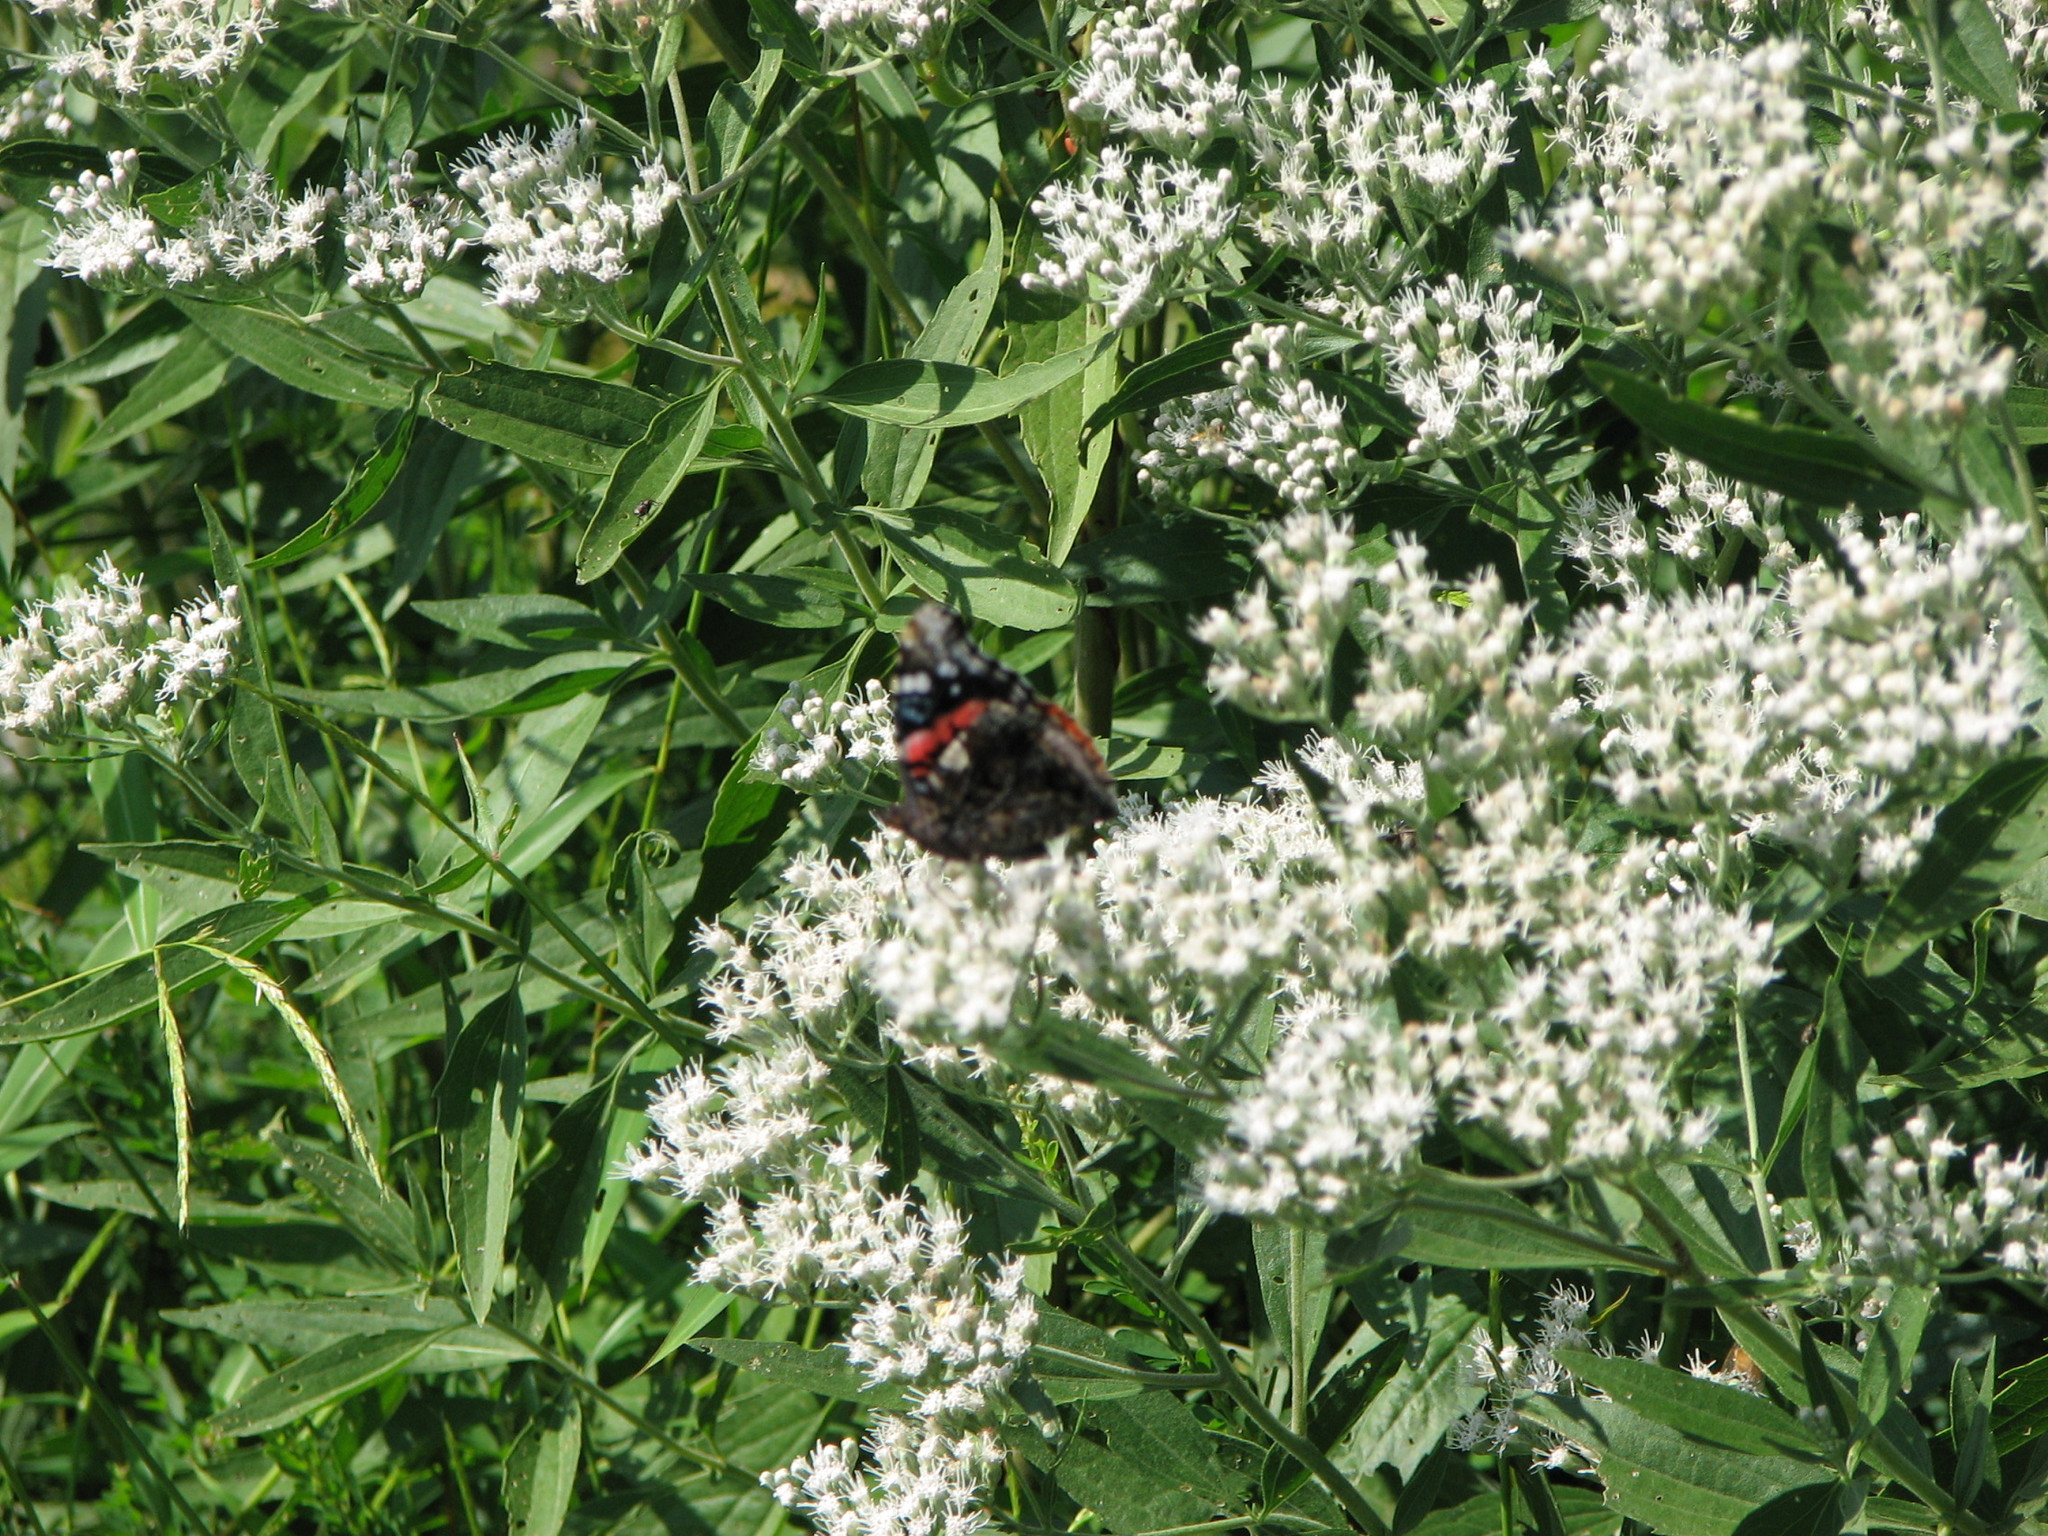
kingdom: Animalia
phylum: Arthropoda
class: Insecta
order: Lepidoptera
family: Nymphalidae
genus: Vanessa
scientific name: Vanessa atalanta
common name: Red admiral
